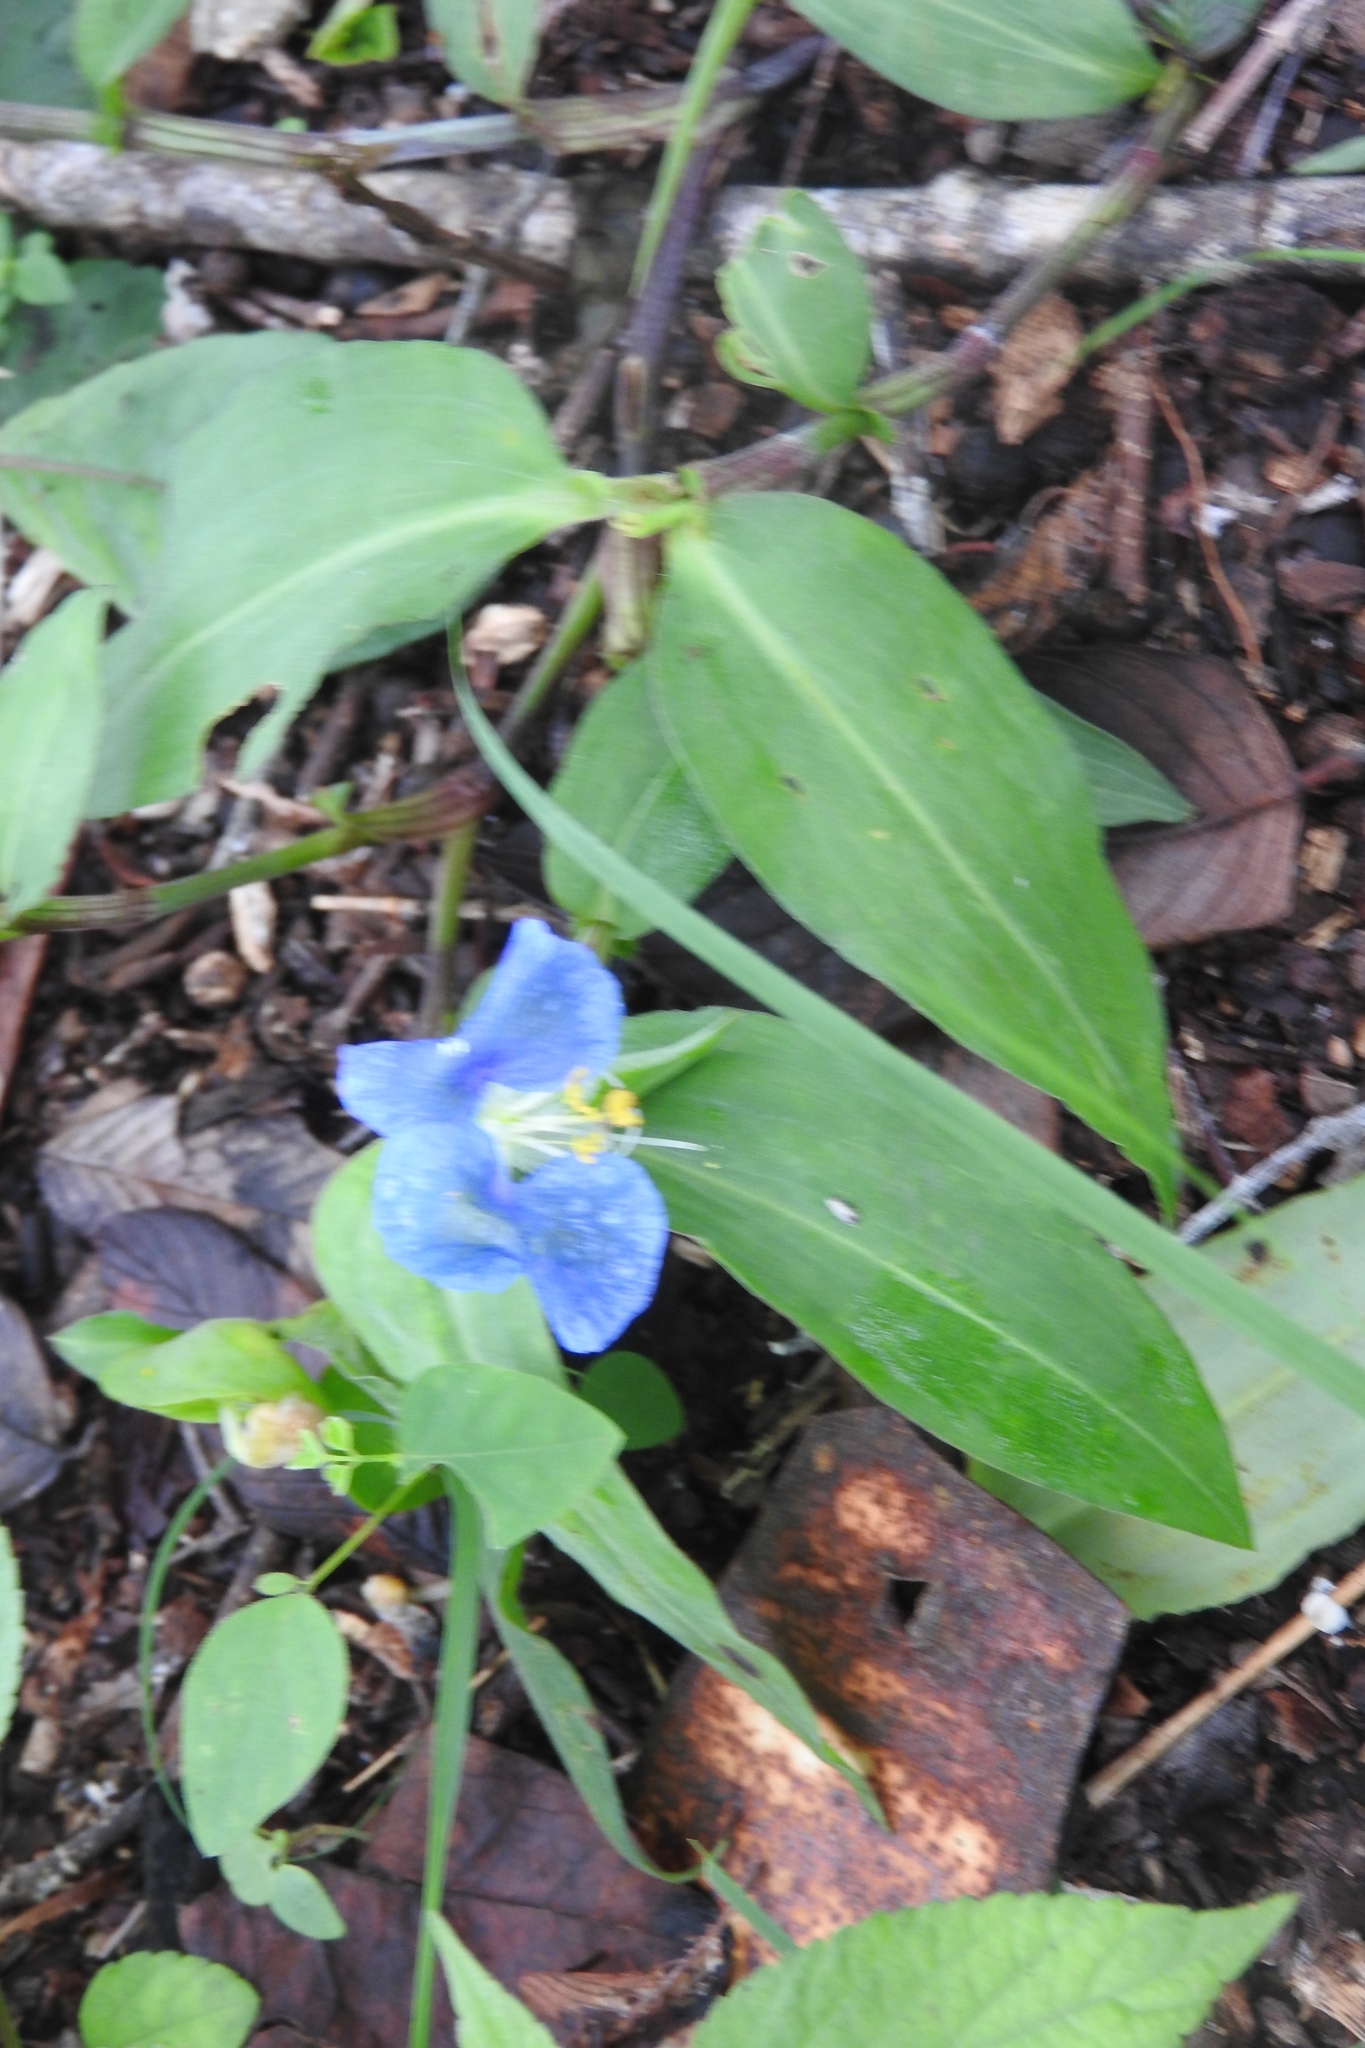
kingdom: Plantae
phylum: Tracheophyta
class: Liliopsida
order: Commelinales
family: Commelinaceae
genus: Commelina
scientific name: Commelina erecta
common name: Blousel blommetjie
